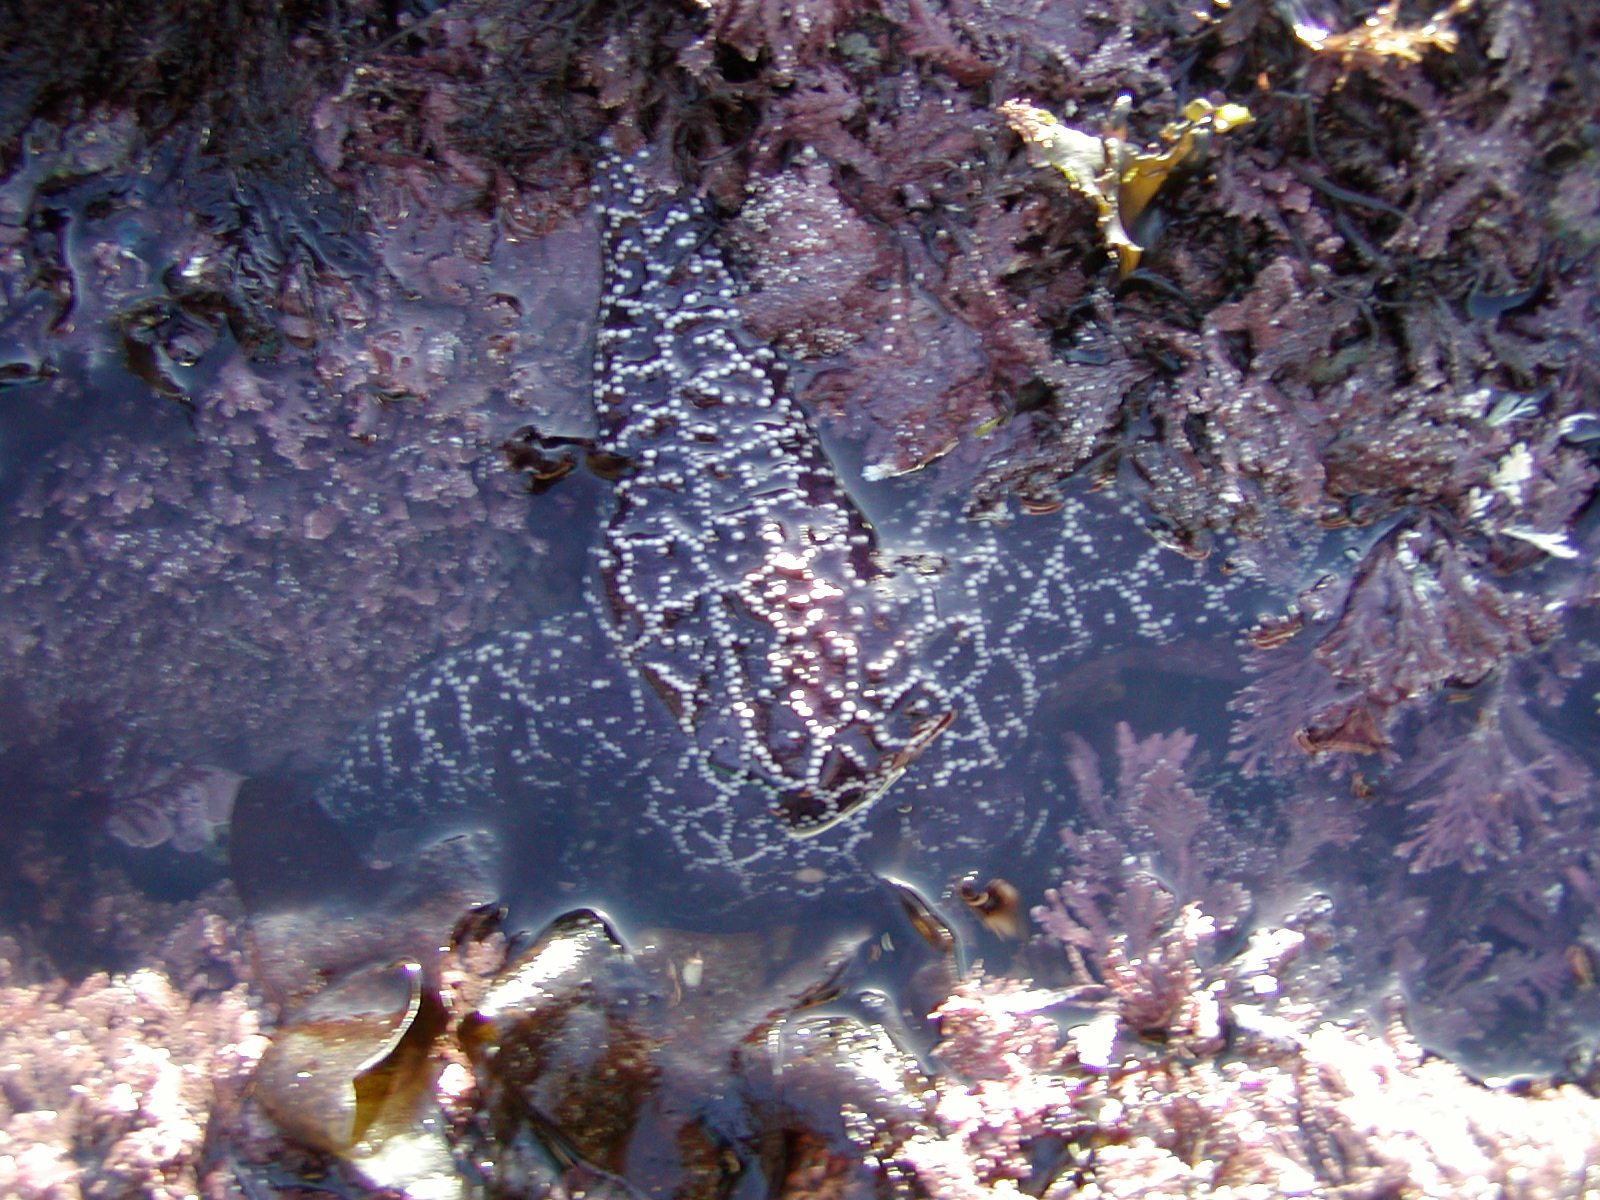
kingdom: Animalia
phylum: Echinodermata
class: Asteroidea
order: Forcipulatida
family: Asteriidae
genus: Pisaster
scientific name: Pisaster ochraceus
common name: Ochre stars
